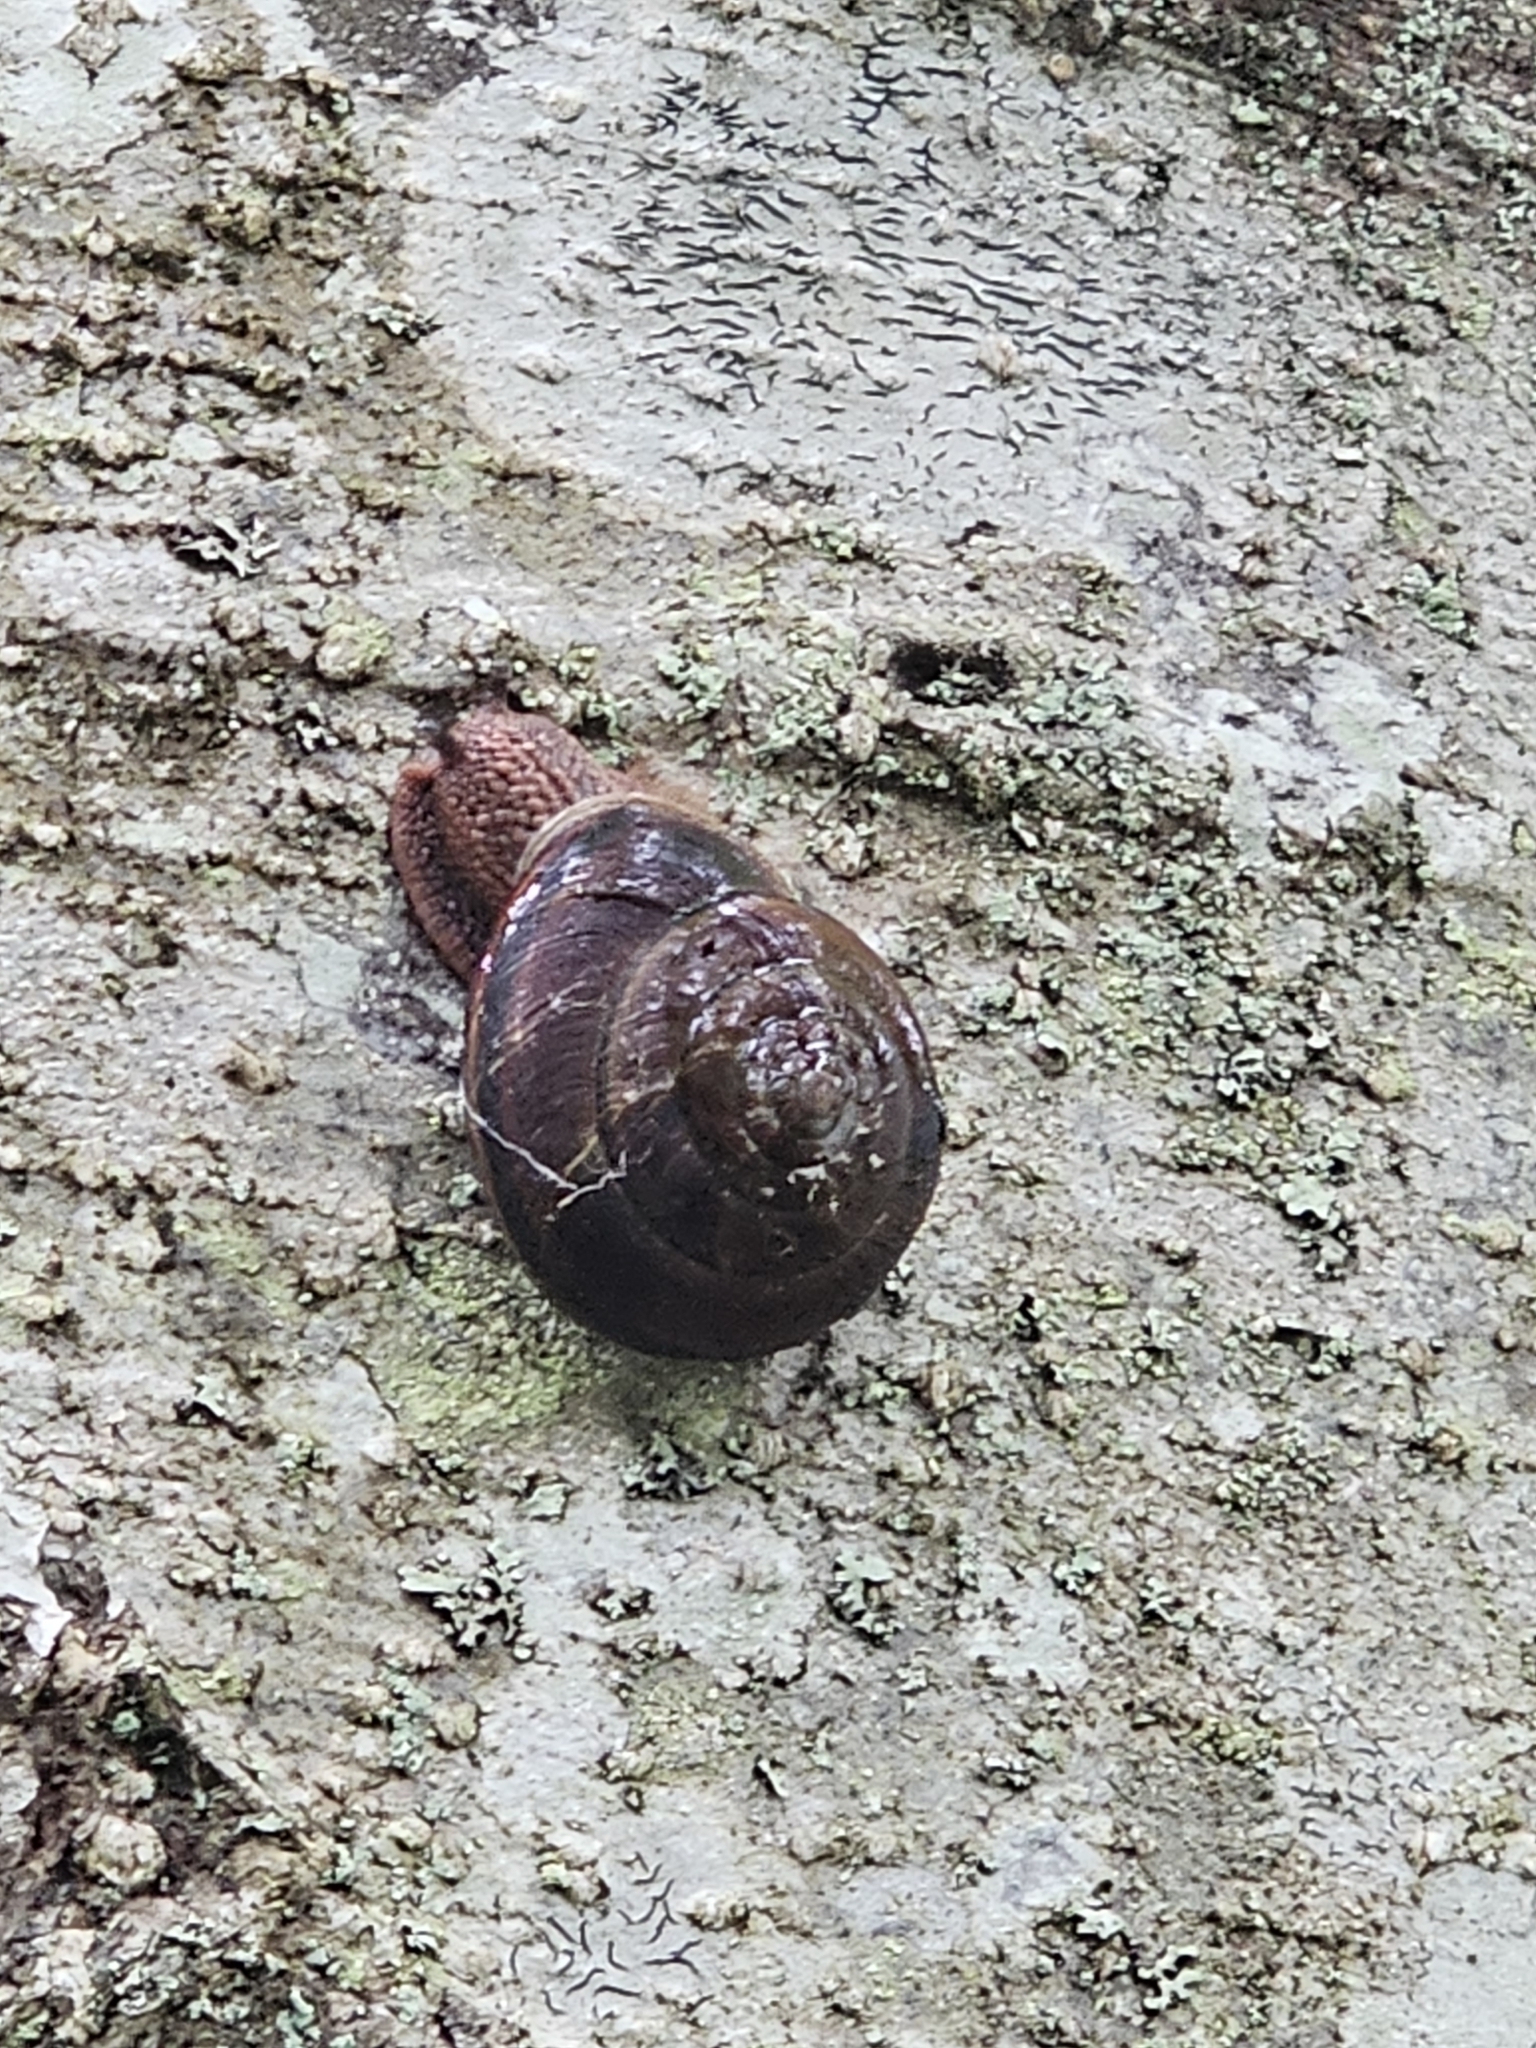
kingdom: Animalia
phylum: Mollusca
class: Gastropoda
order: Stylommatophora
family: Xanthonychidae
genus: Monadenia
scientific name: Monadenia fidelis
